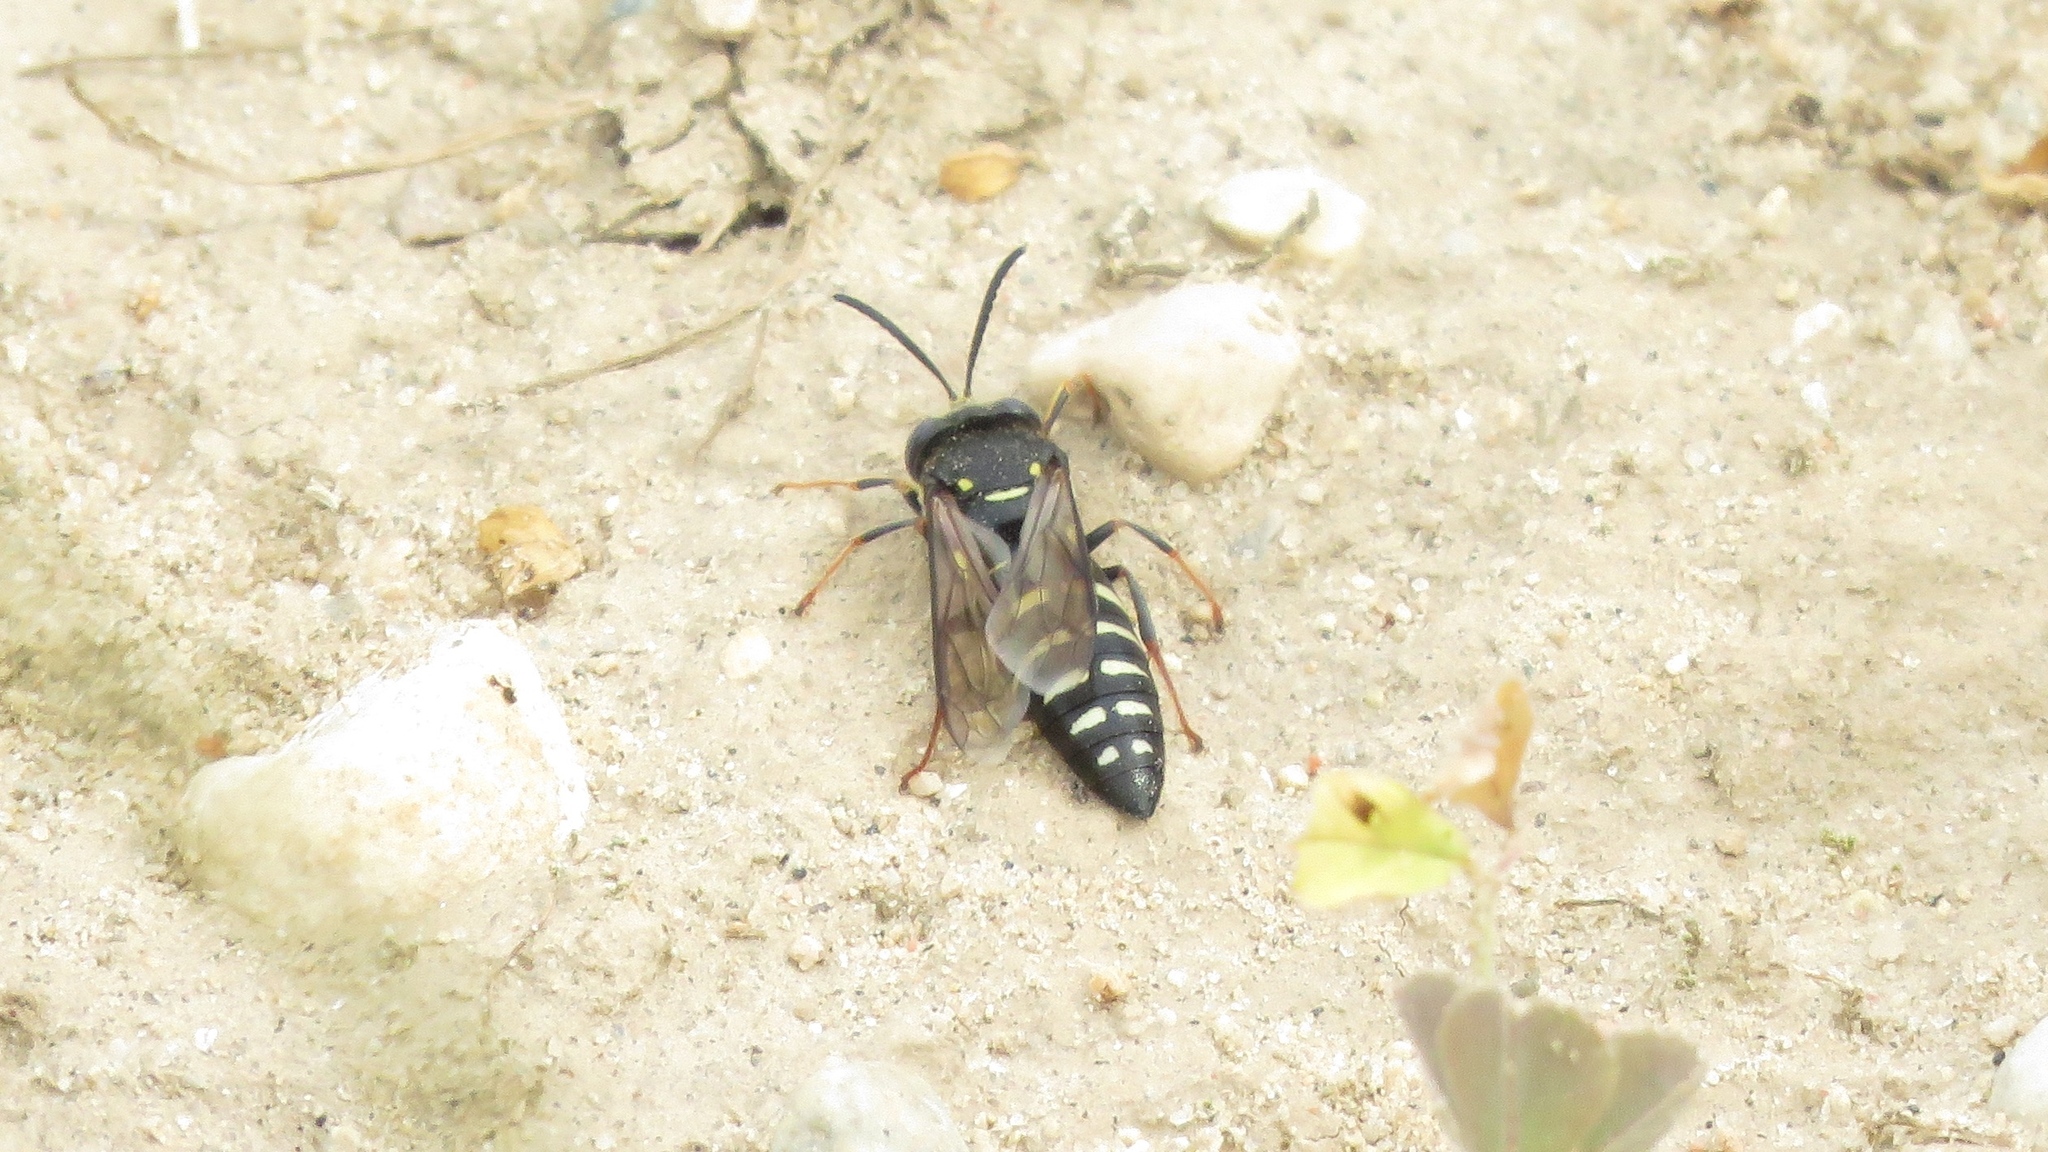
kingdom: Animalia
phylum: Arthropoda
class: Insecta
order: Hymenoptera
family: Crabronidae
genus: Bicyrtes
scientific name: Bicyrtes ventralis
